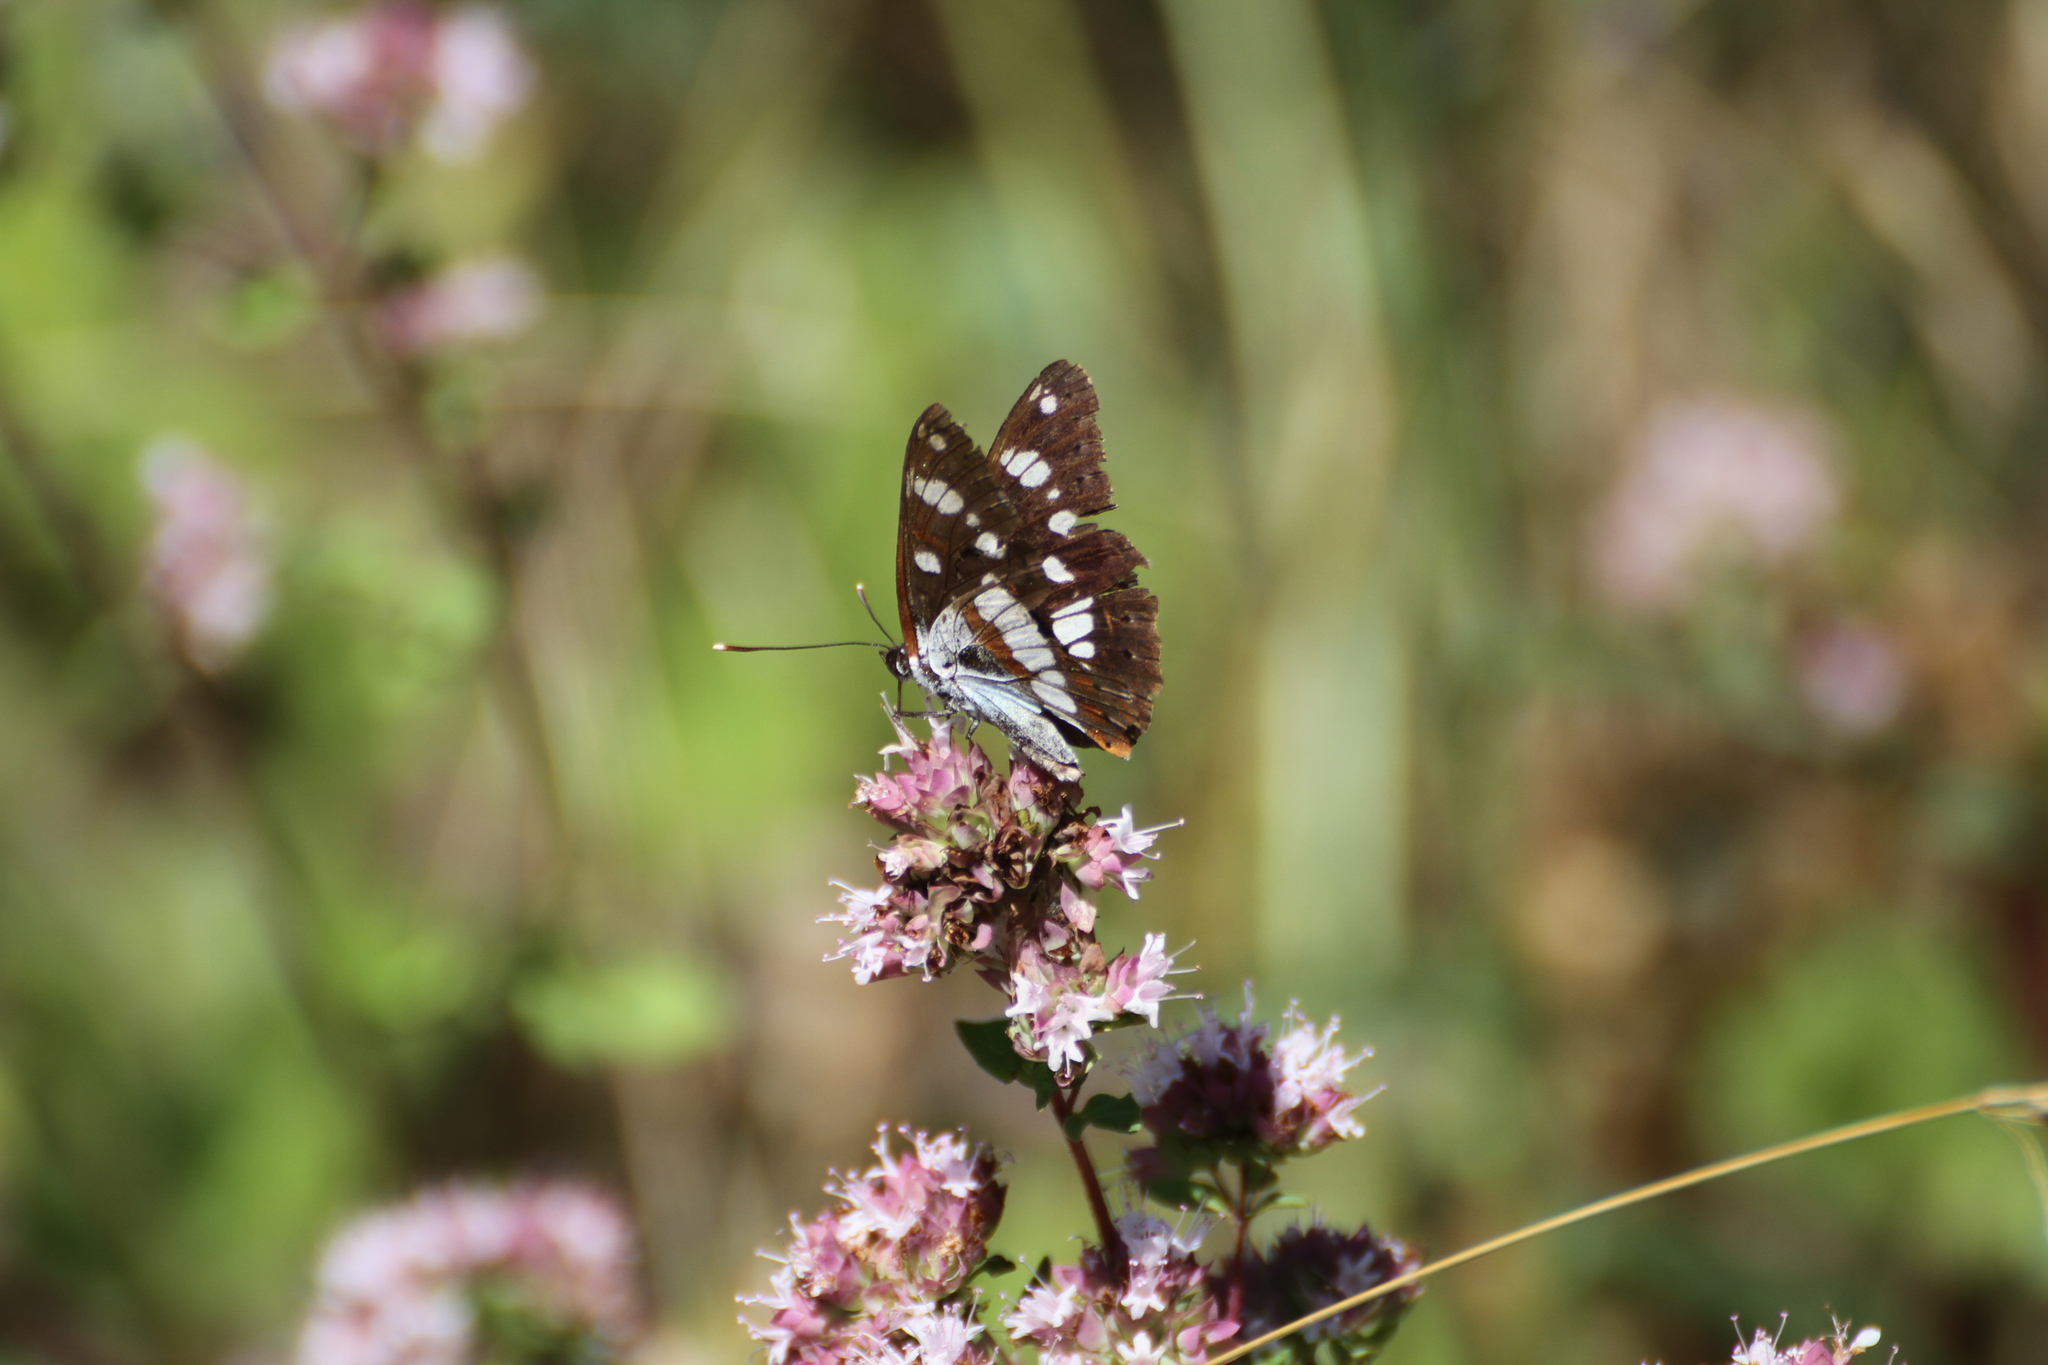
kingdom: Animalia
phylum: Arthropoda
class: Insecta
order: Lepidoptera
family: Nymphalidae
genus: Limenitis
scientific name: Limenitis reducta
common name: Southern white admiral
